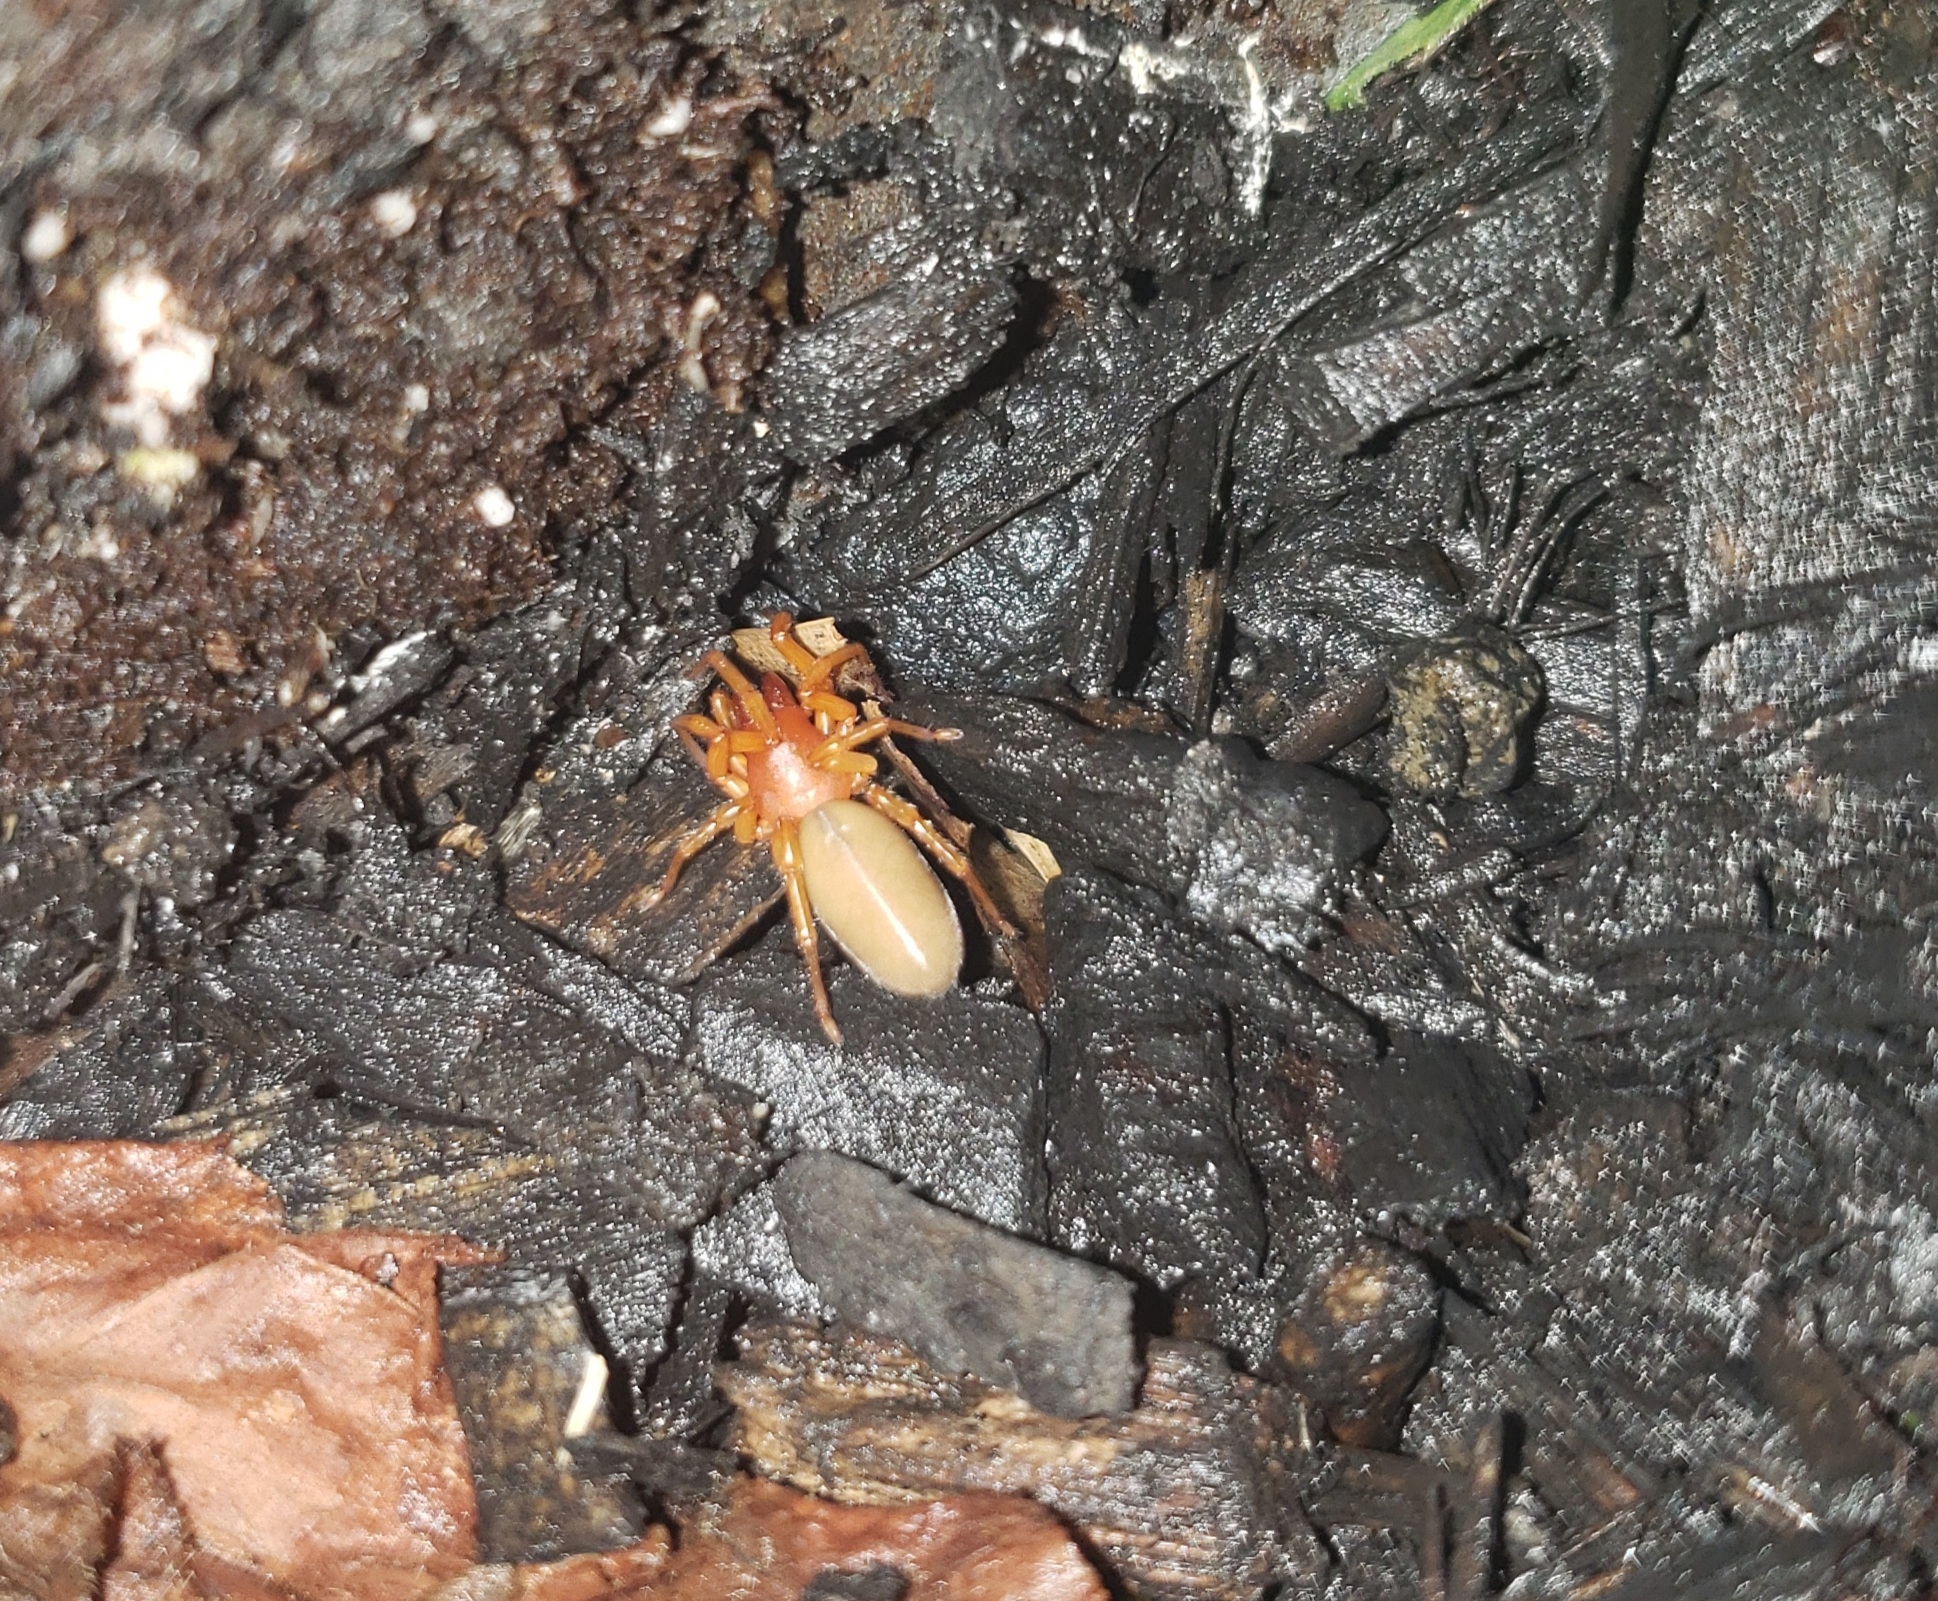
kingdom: Animalia
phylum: Arthropoda
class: Arachnida
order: Araneae
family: Dysderidae
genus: Dysdera
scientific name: Dysdera crocata
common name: Woodlouse spider
